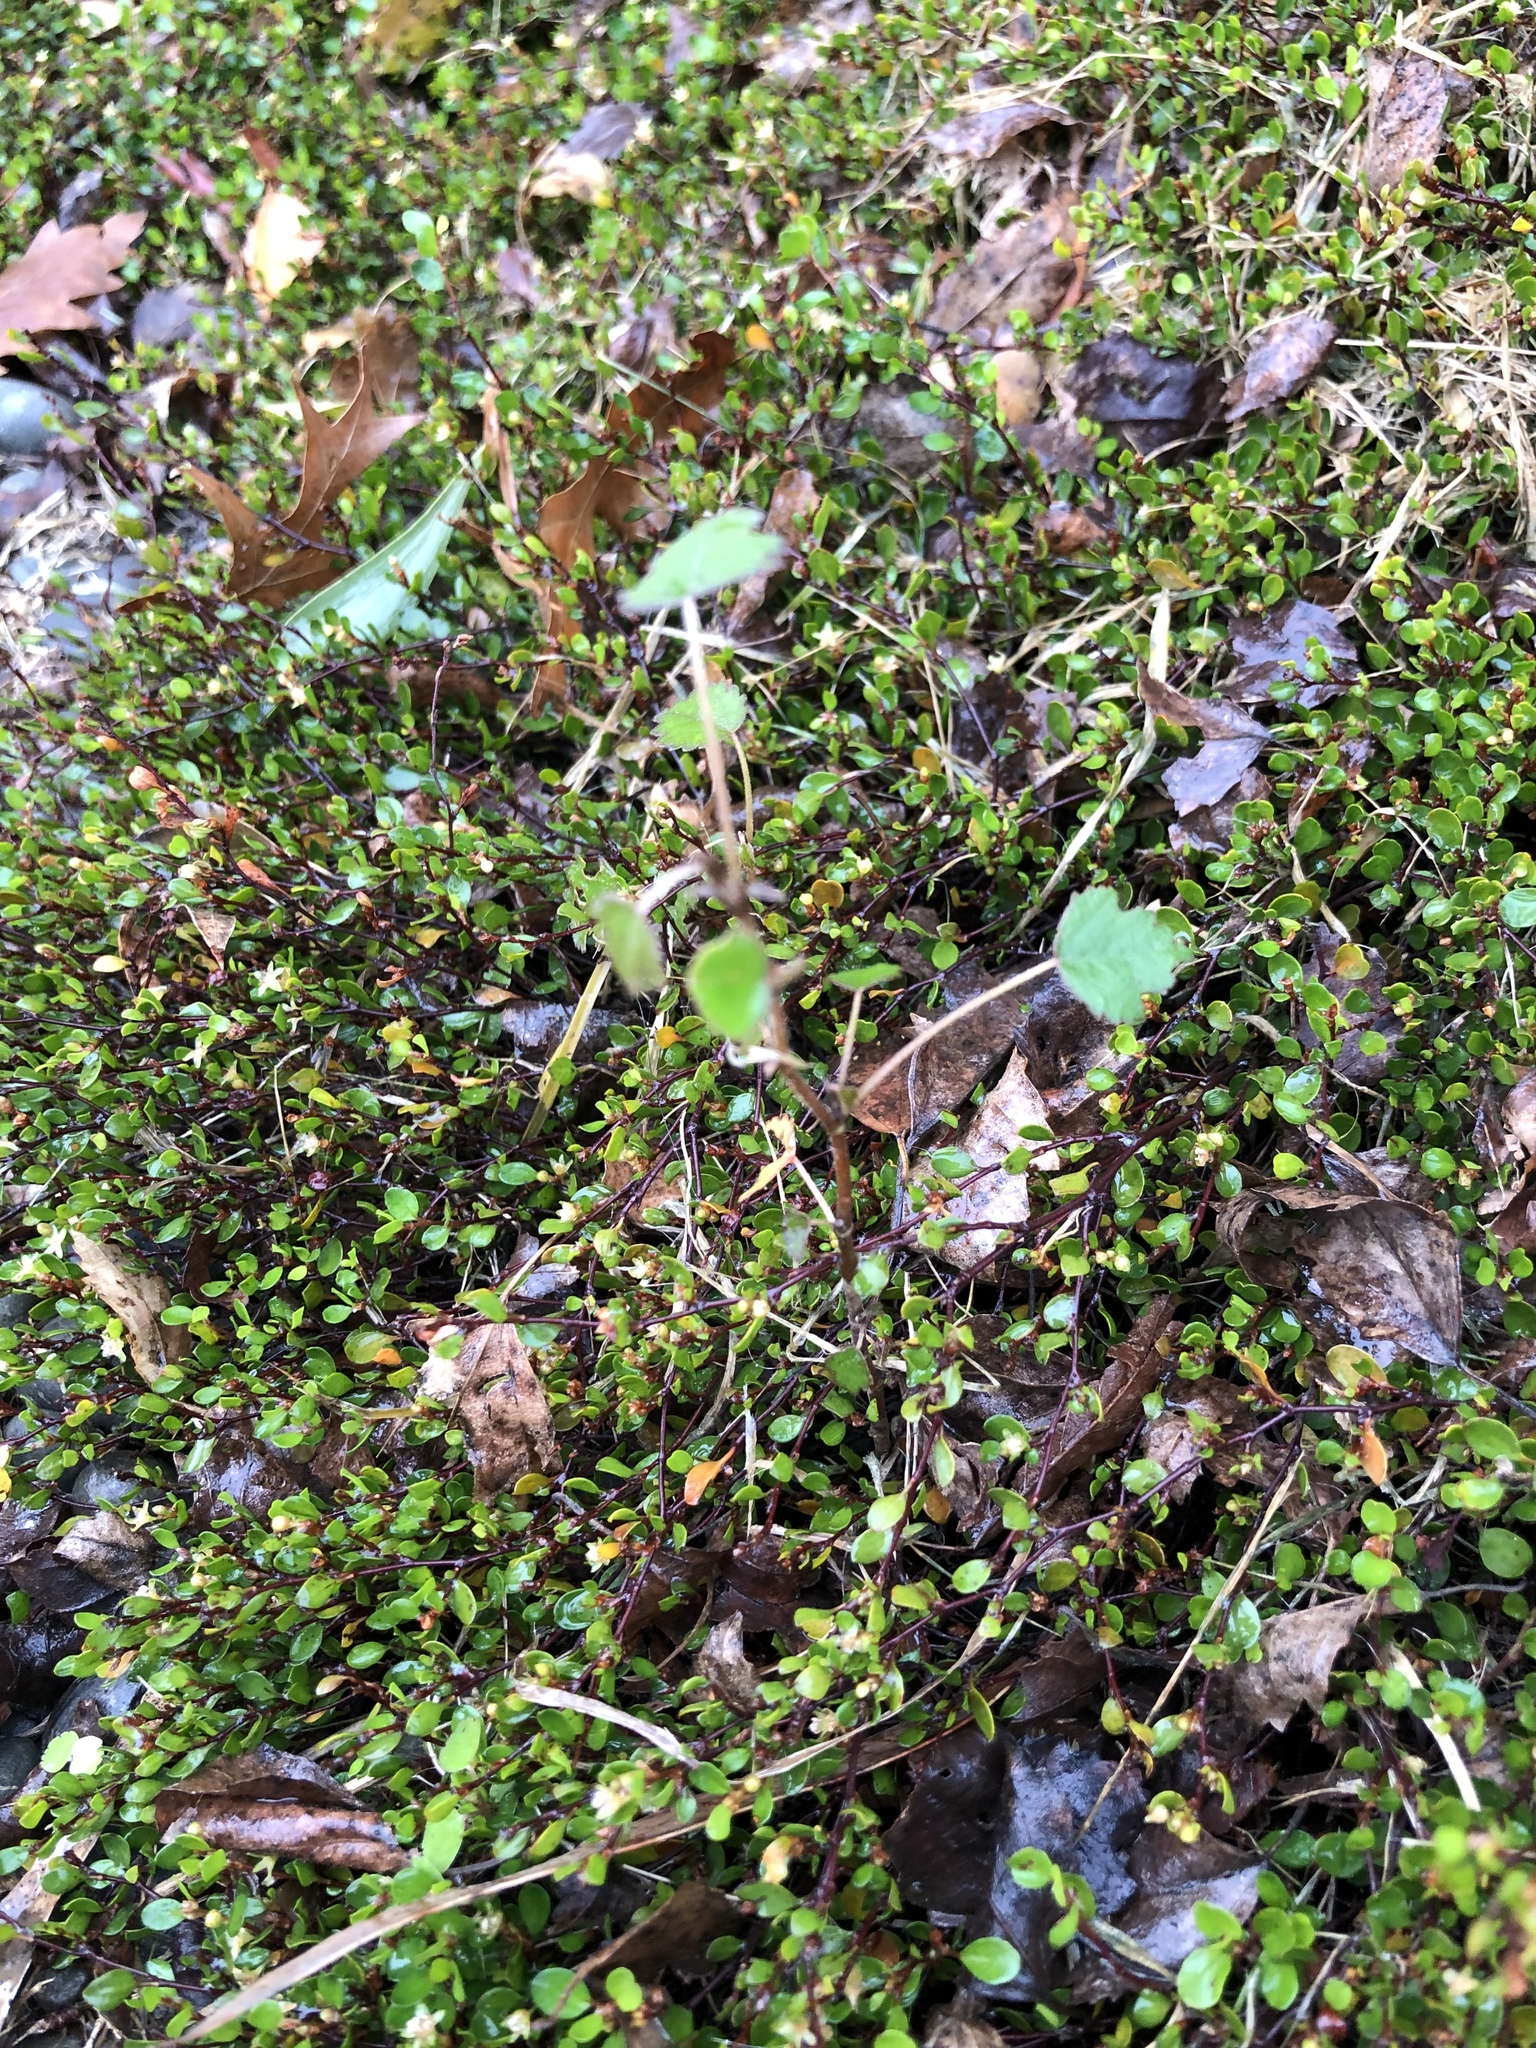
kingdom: Plantae
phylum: Tracheophyta
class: Magnoliopsida
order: Malvales
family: Malvaceae
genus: Plagianthus
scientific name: Plagianthus regius
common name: Manatu
